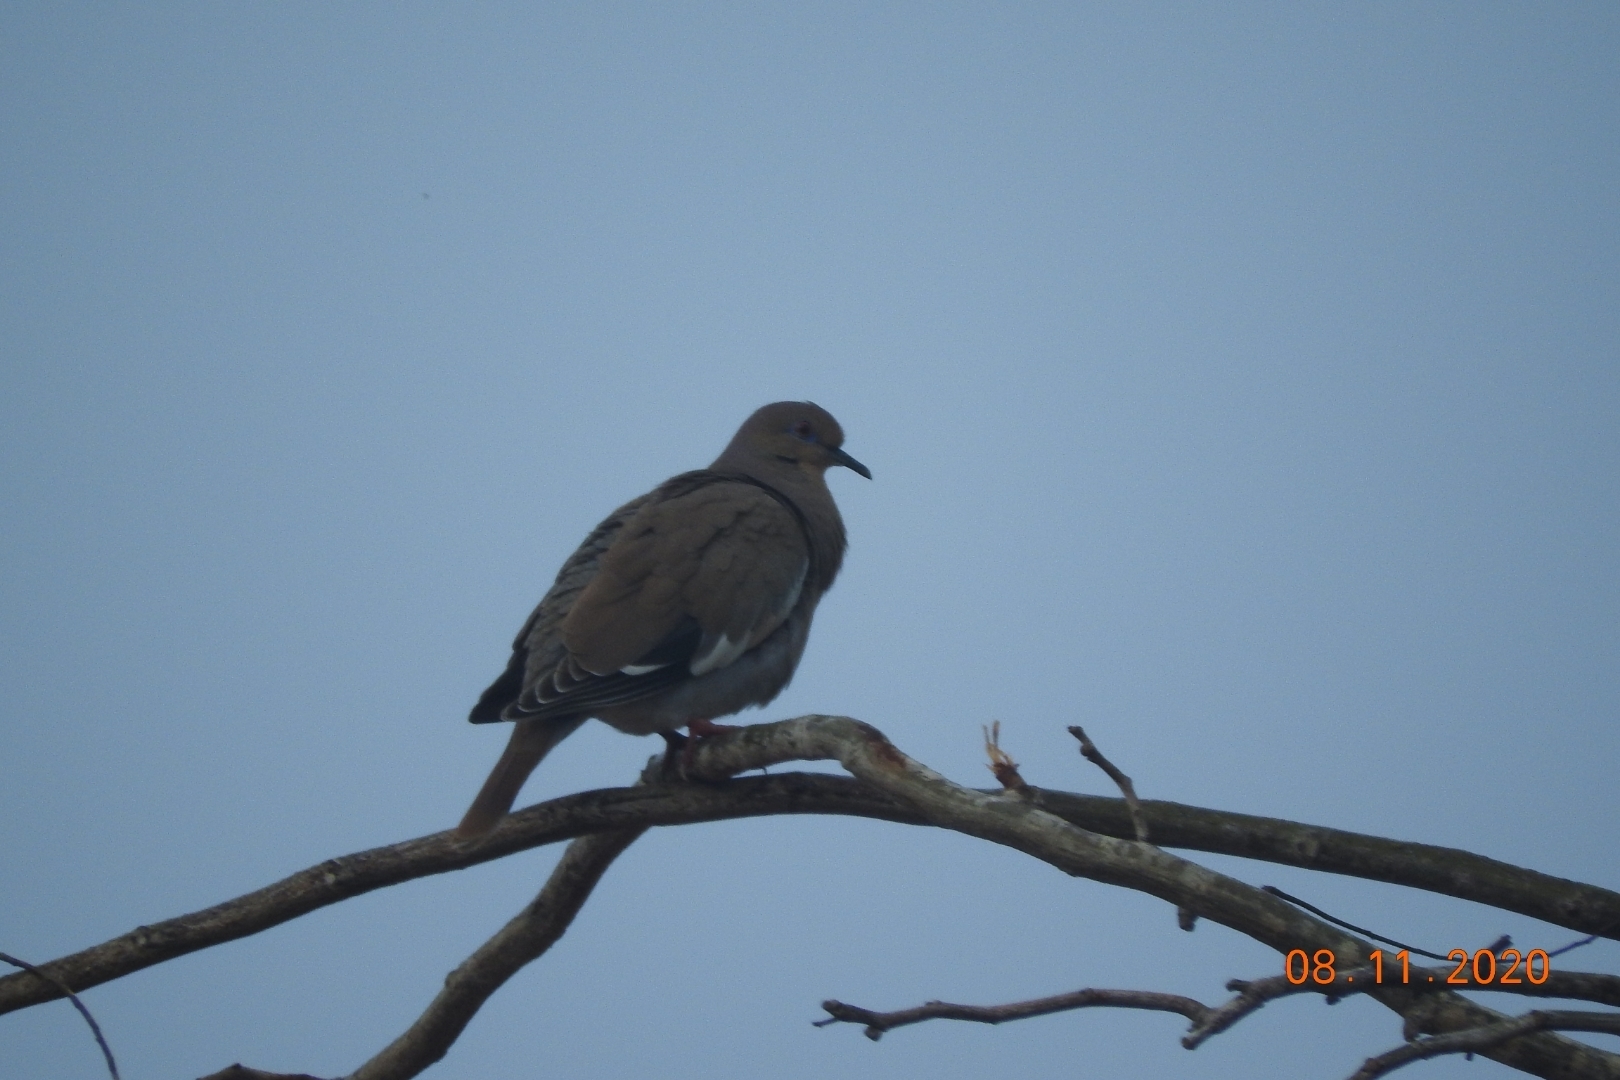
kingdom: Animalia
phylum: Chordata
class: Aves
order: Columbiformes
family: Columbidae
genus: Zenaida
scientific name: Zenaida asiatica
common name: White-winged dove
